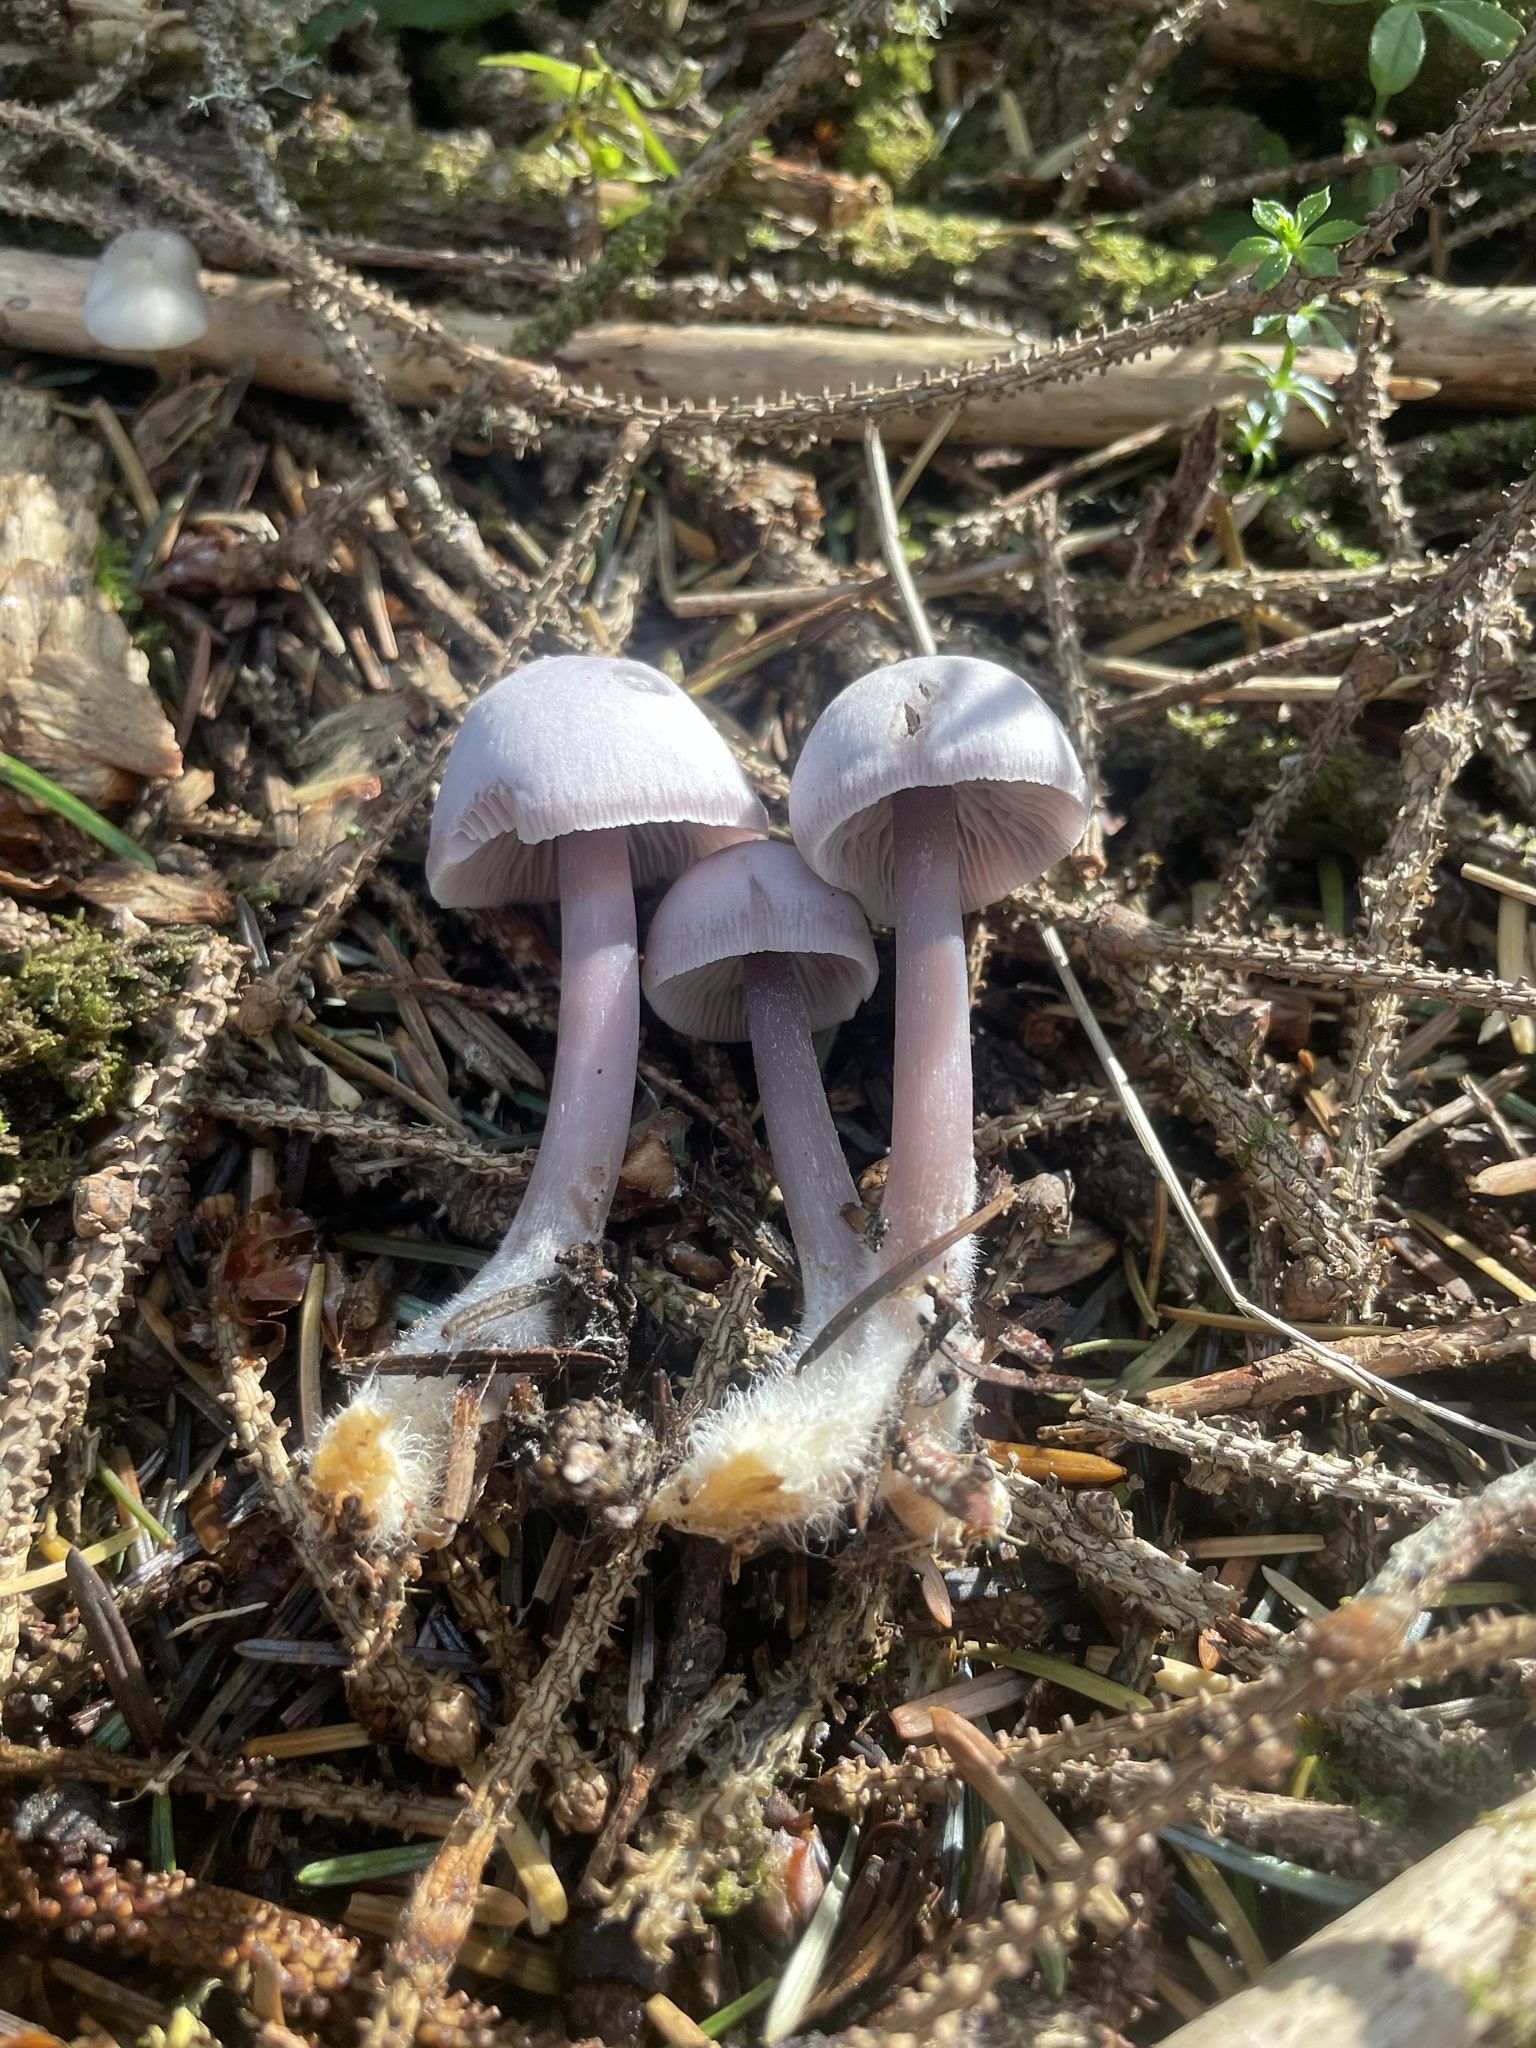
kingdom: Fungi
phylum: Basidiomycota
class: Agaricomycetes
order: Agaricales
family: Mycenaceae
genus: Mycena
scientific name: Mycena pura
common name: Lilac bonnet
